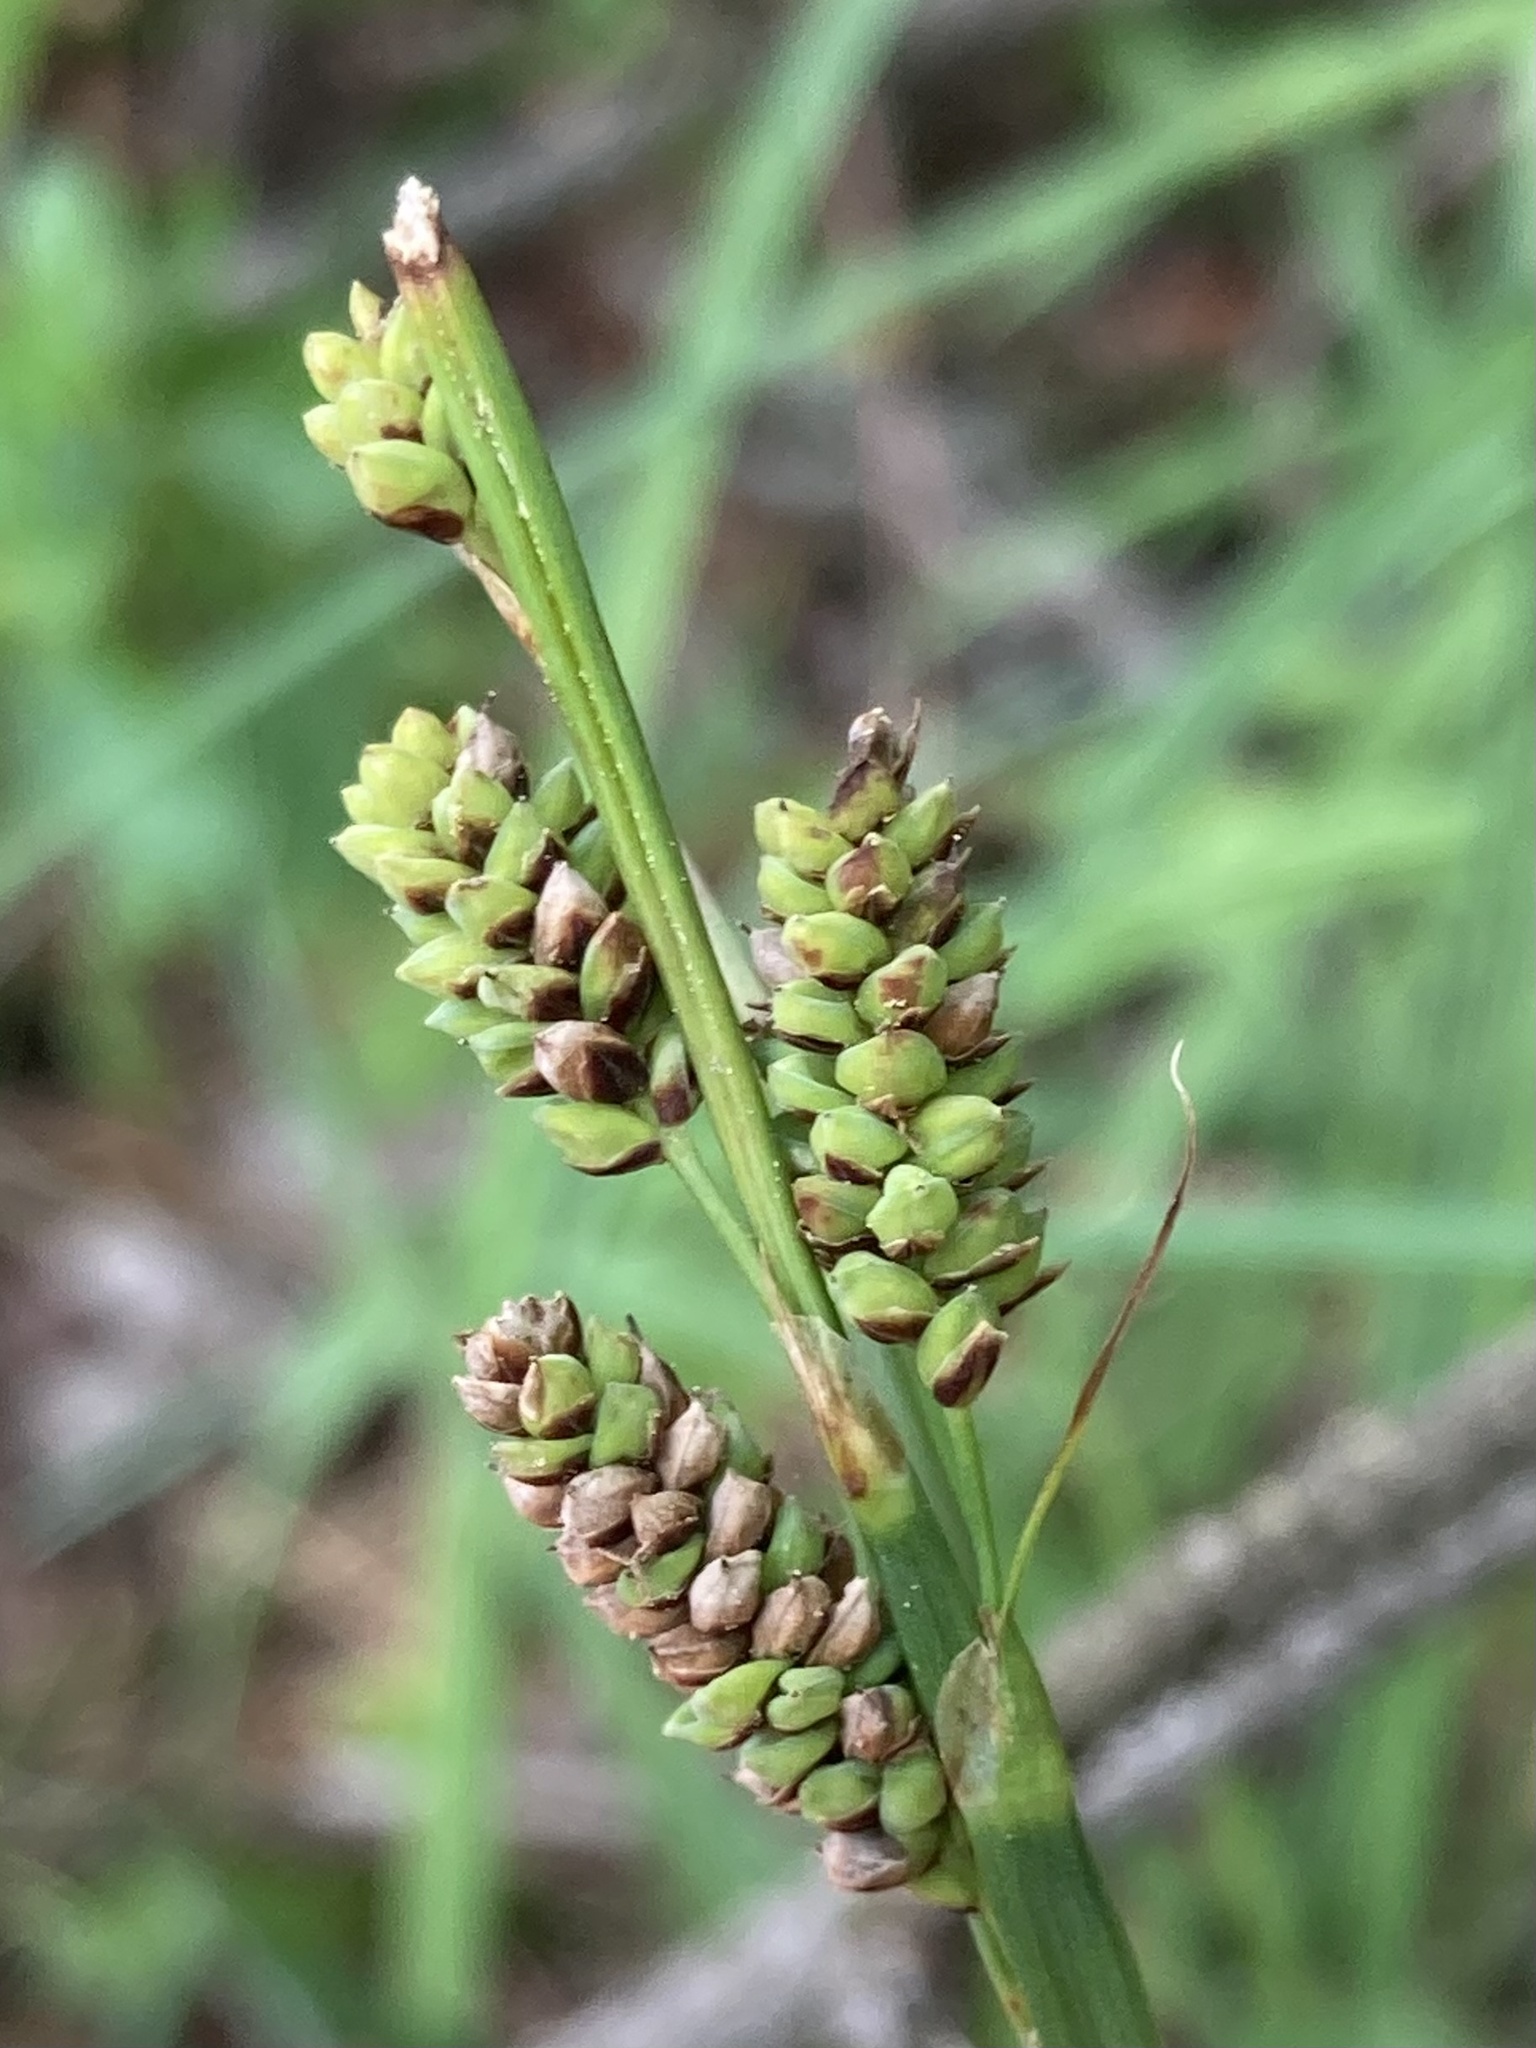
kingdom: Plantae
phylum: Tracheophyta
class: Liliopsida
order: Poales
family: Cyperaceae
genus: Carex
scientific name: Carex barrattii
